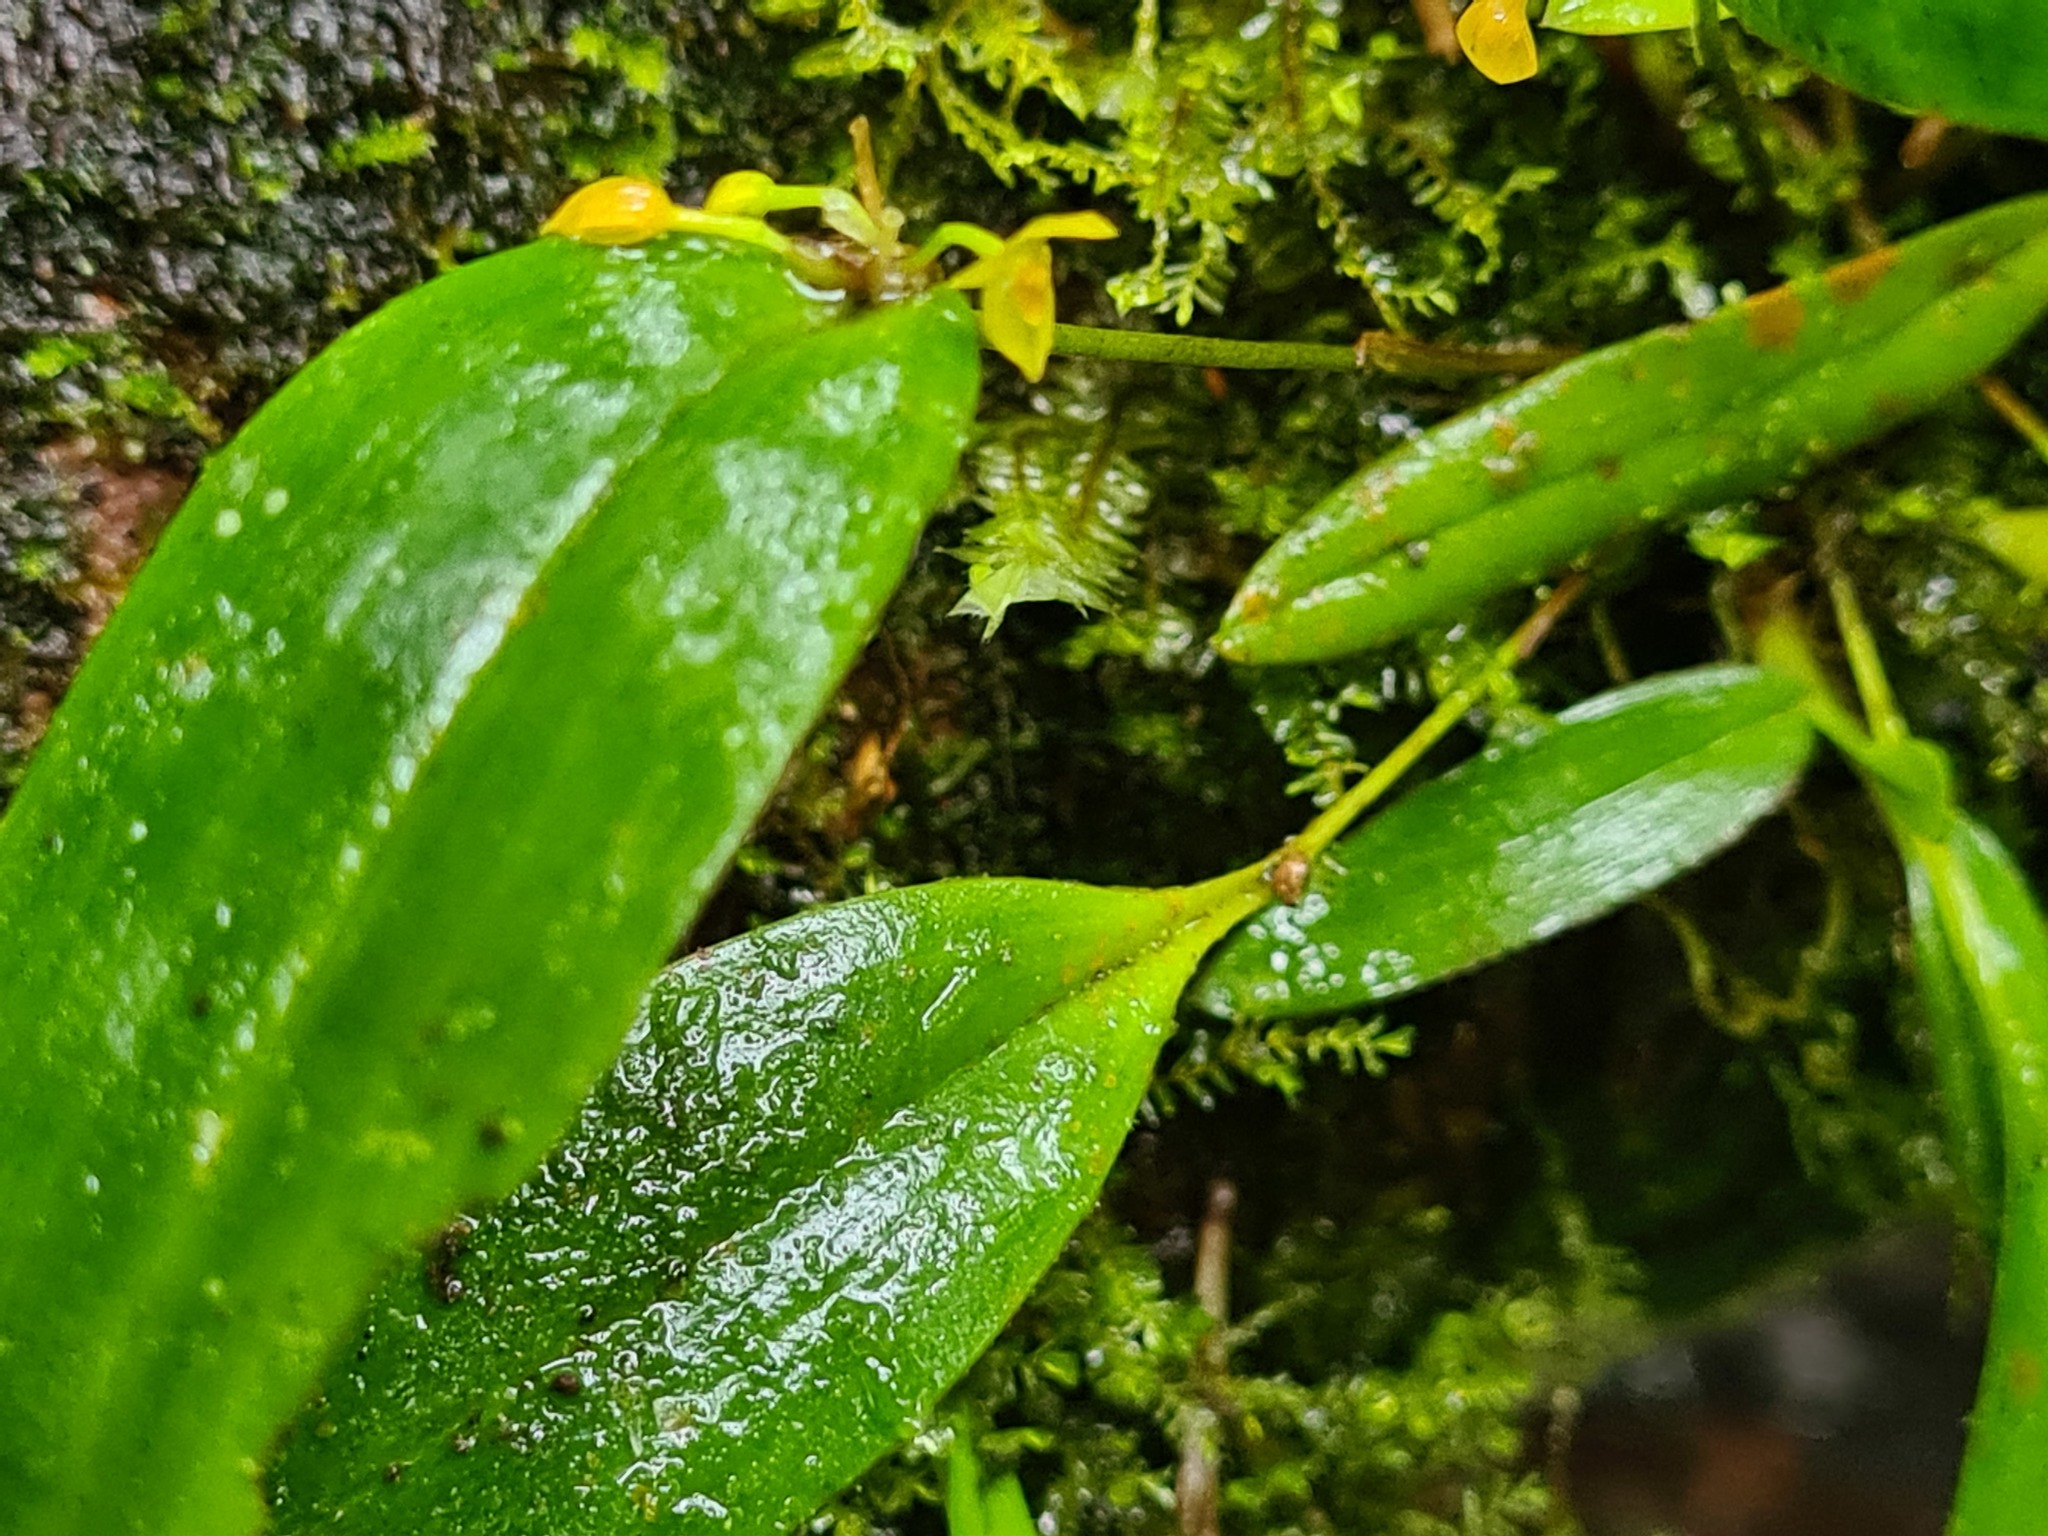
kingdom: Plantae
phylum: Tracheophyta
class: Liliopsida
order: Asparagales
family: Orchidaceae
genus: Pleurothallis
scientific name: Pleurothallis dibolia
